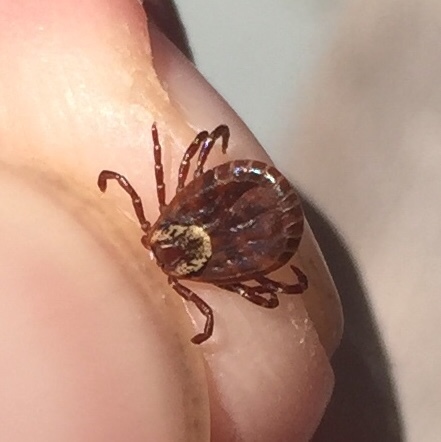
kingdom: Animalia
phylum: Arthropoda
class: Arachnida
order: Ixodida
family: Ixodidae
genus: Dermacentor
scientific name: Dermacentor variabilis
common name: American dog tick
